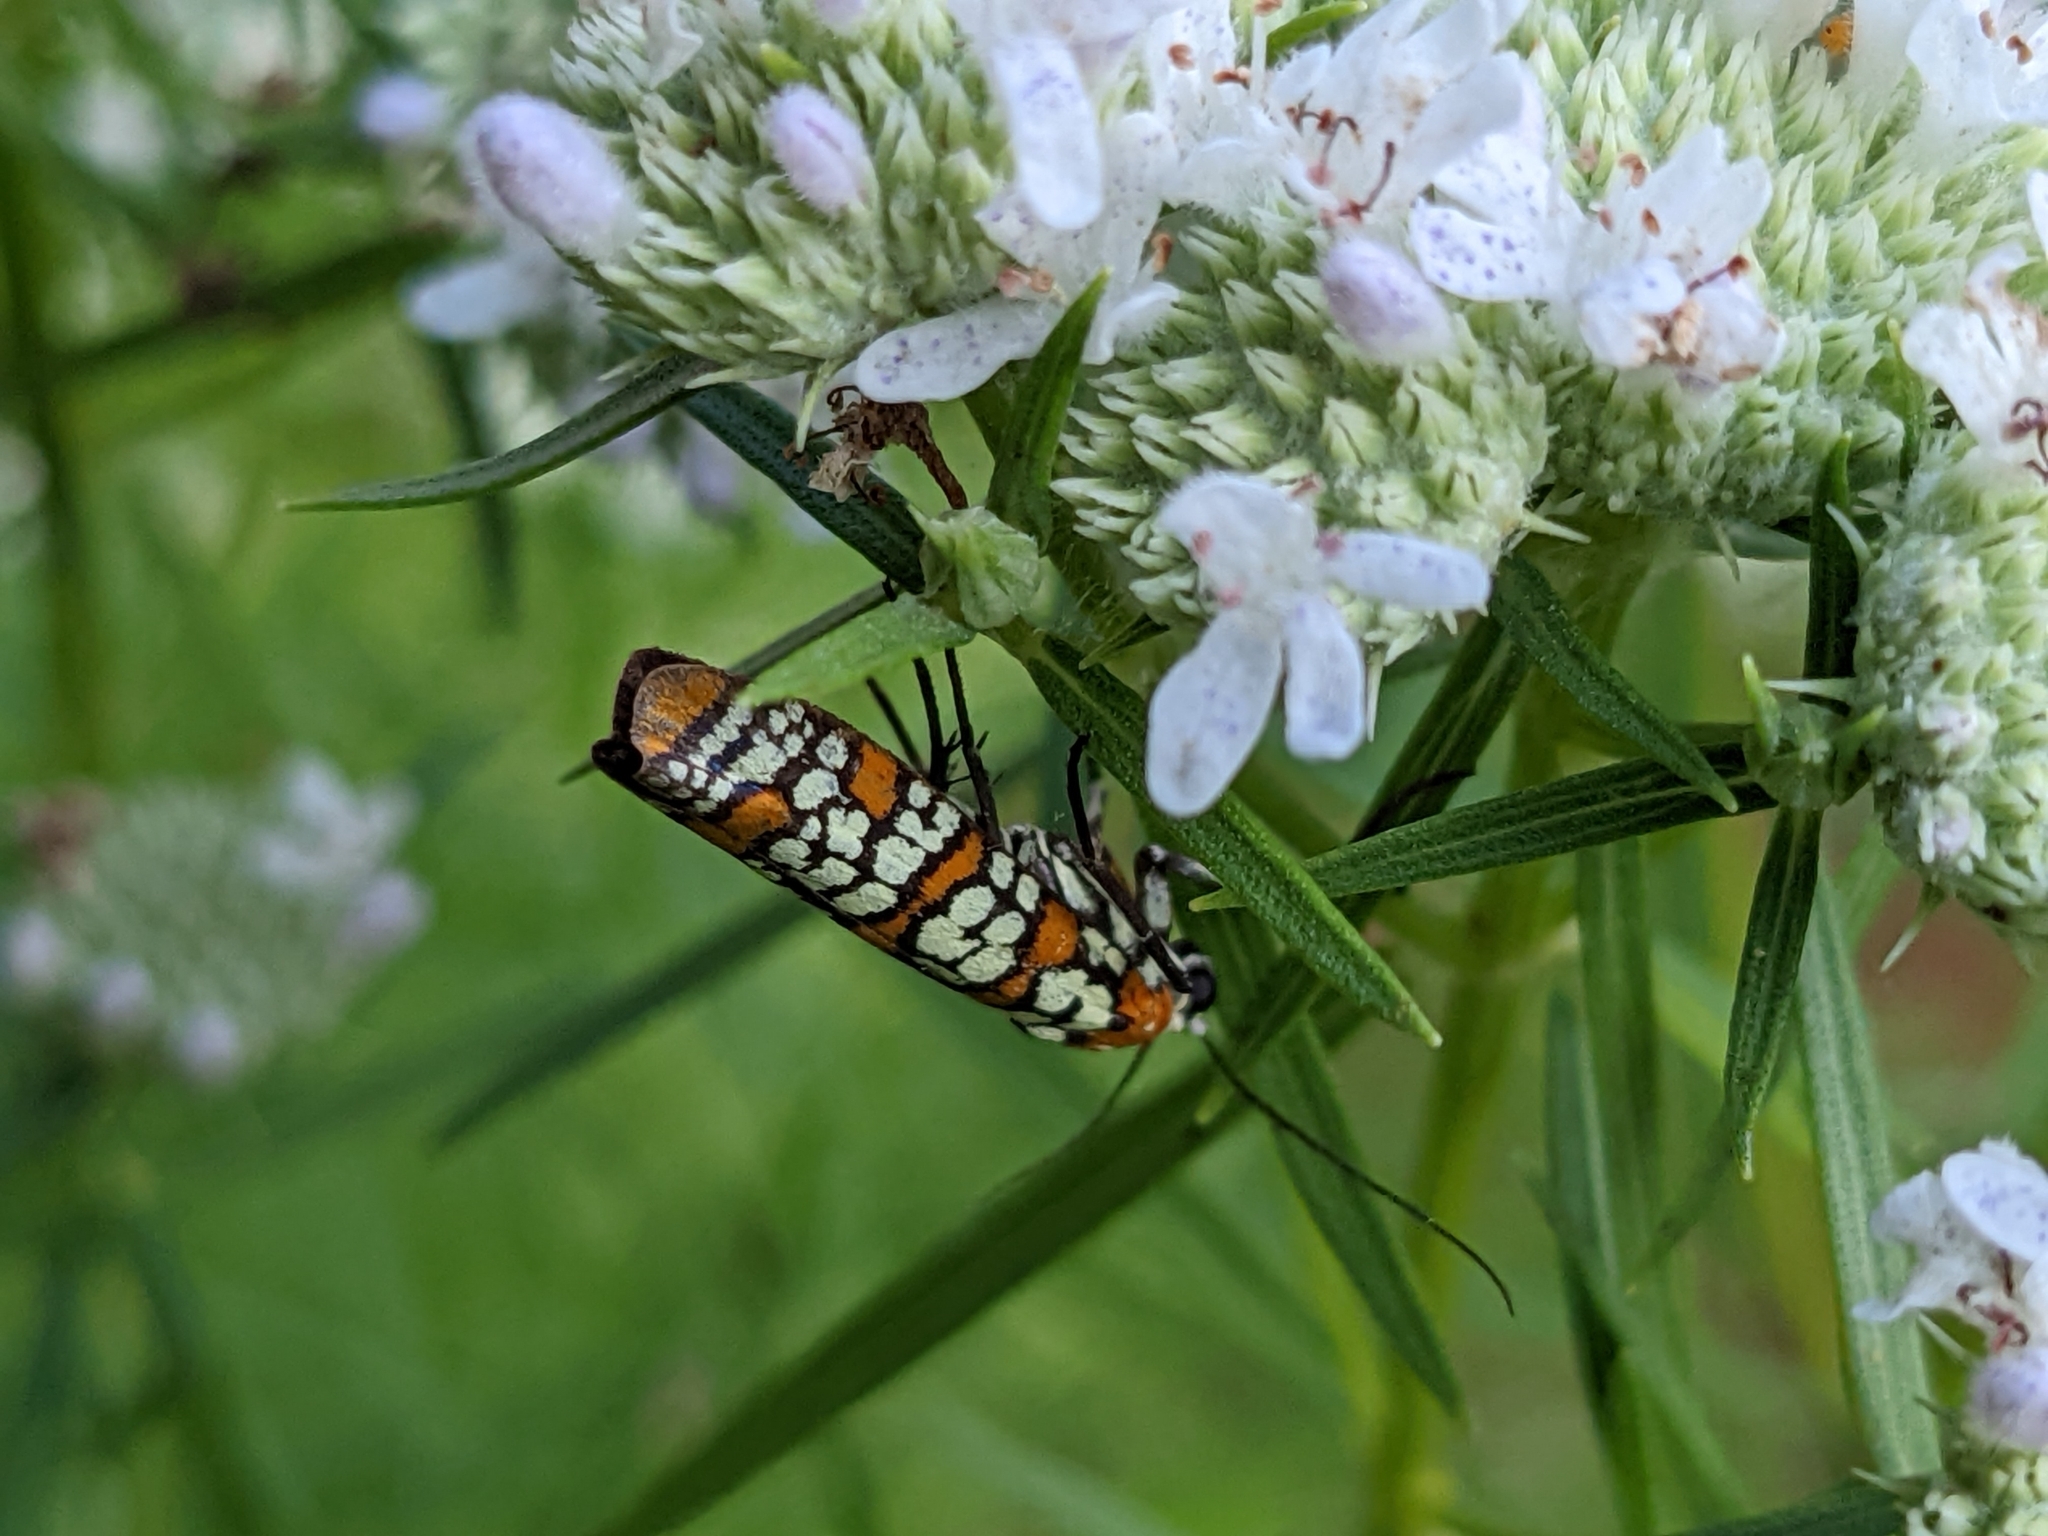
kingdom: Animalia
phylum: Arthropoda
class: Insecta
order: Lepidoptera
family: Attevidae
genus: Atteva
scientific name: Atteva punctella
